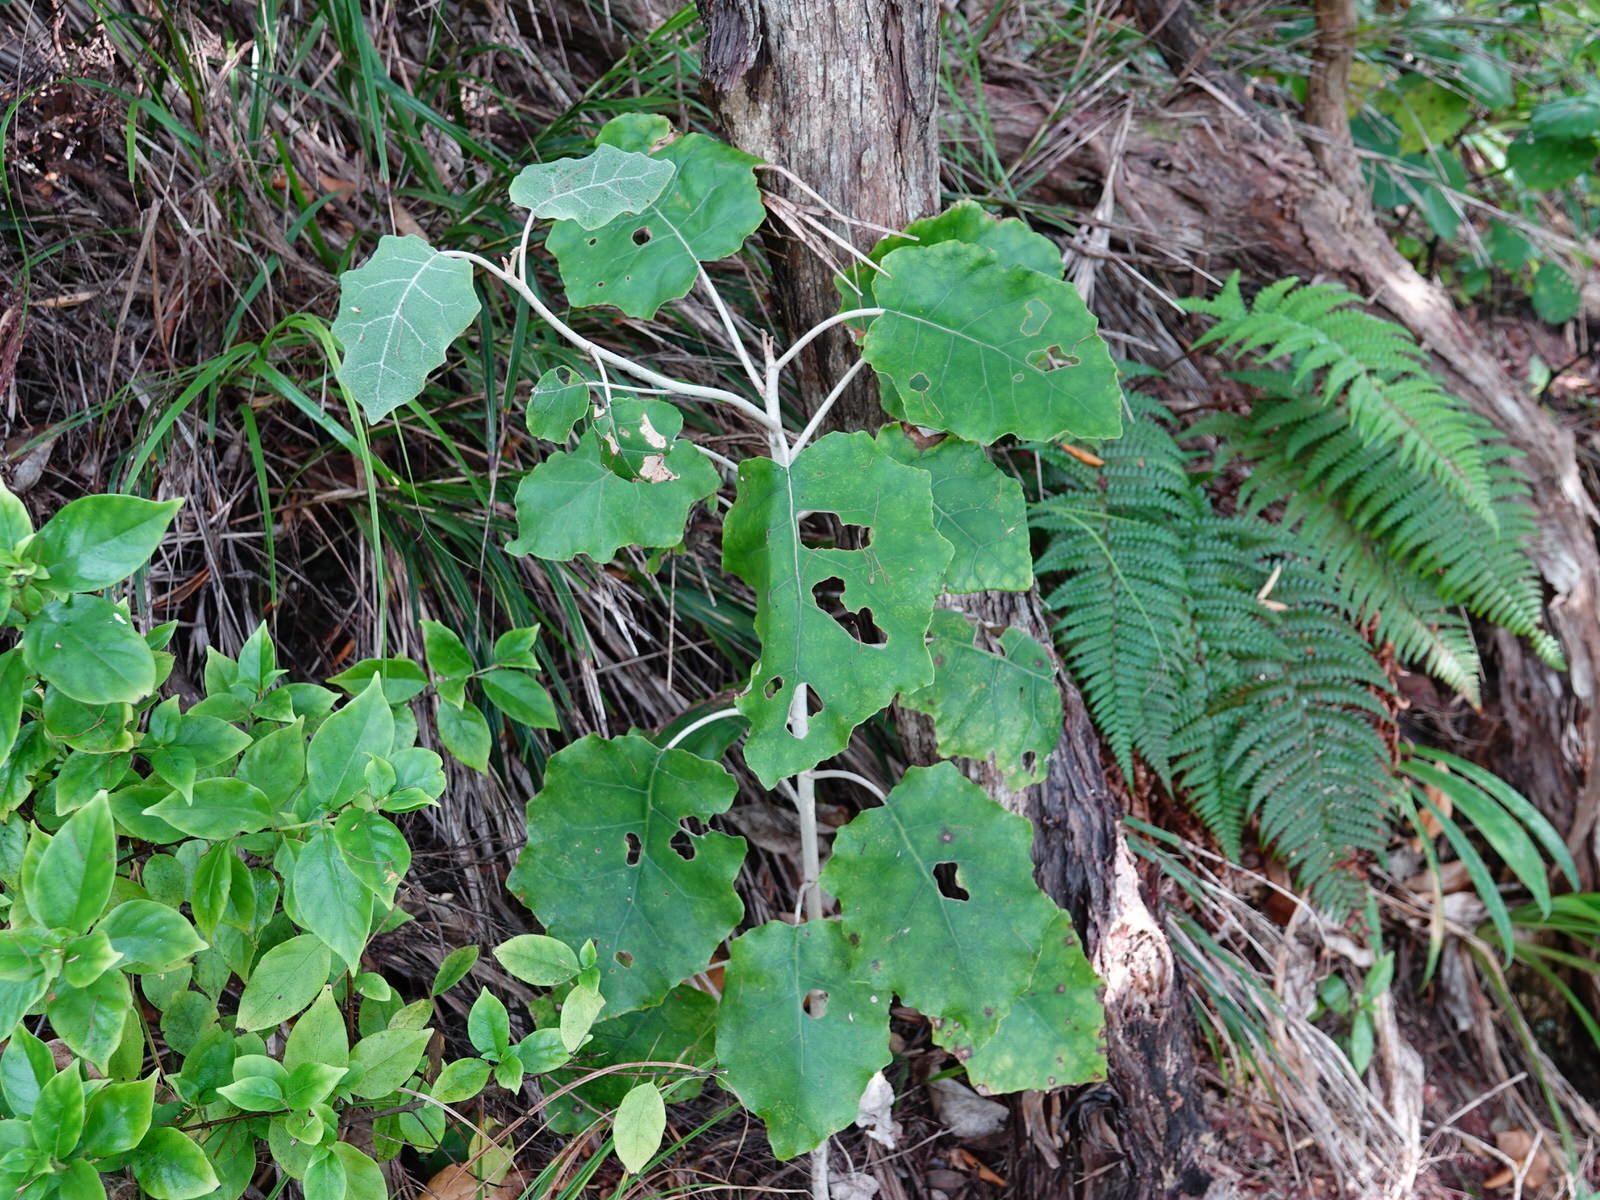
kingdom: Plantae
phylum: Tracheophyta
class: Magnoliopsida
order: Asterales
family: Asteraceae
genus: Brachyglottis
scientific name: Brachyglottis repanda
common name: Hedge ragwort
